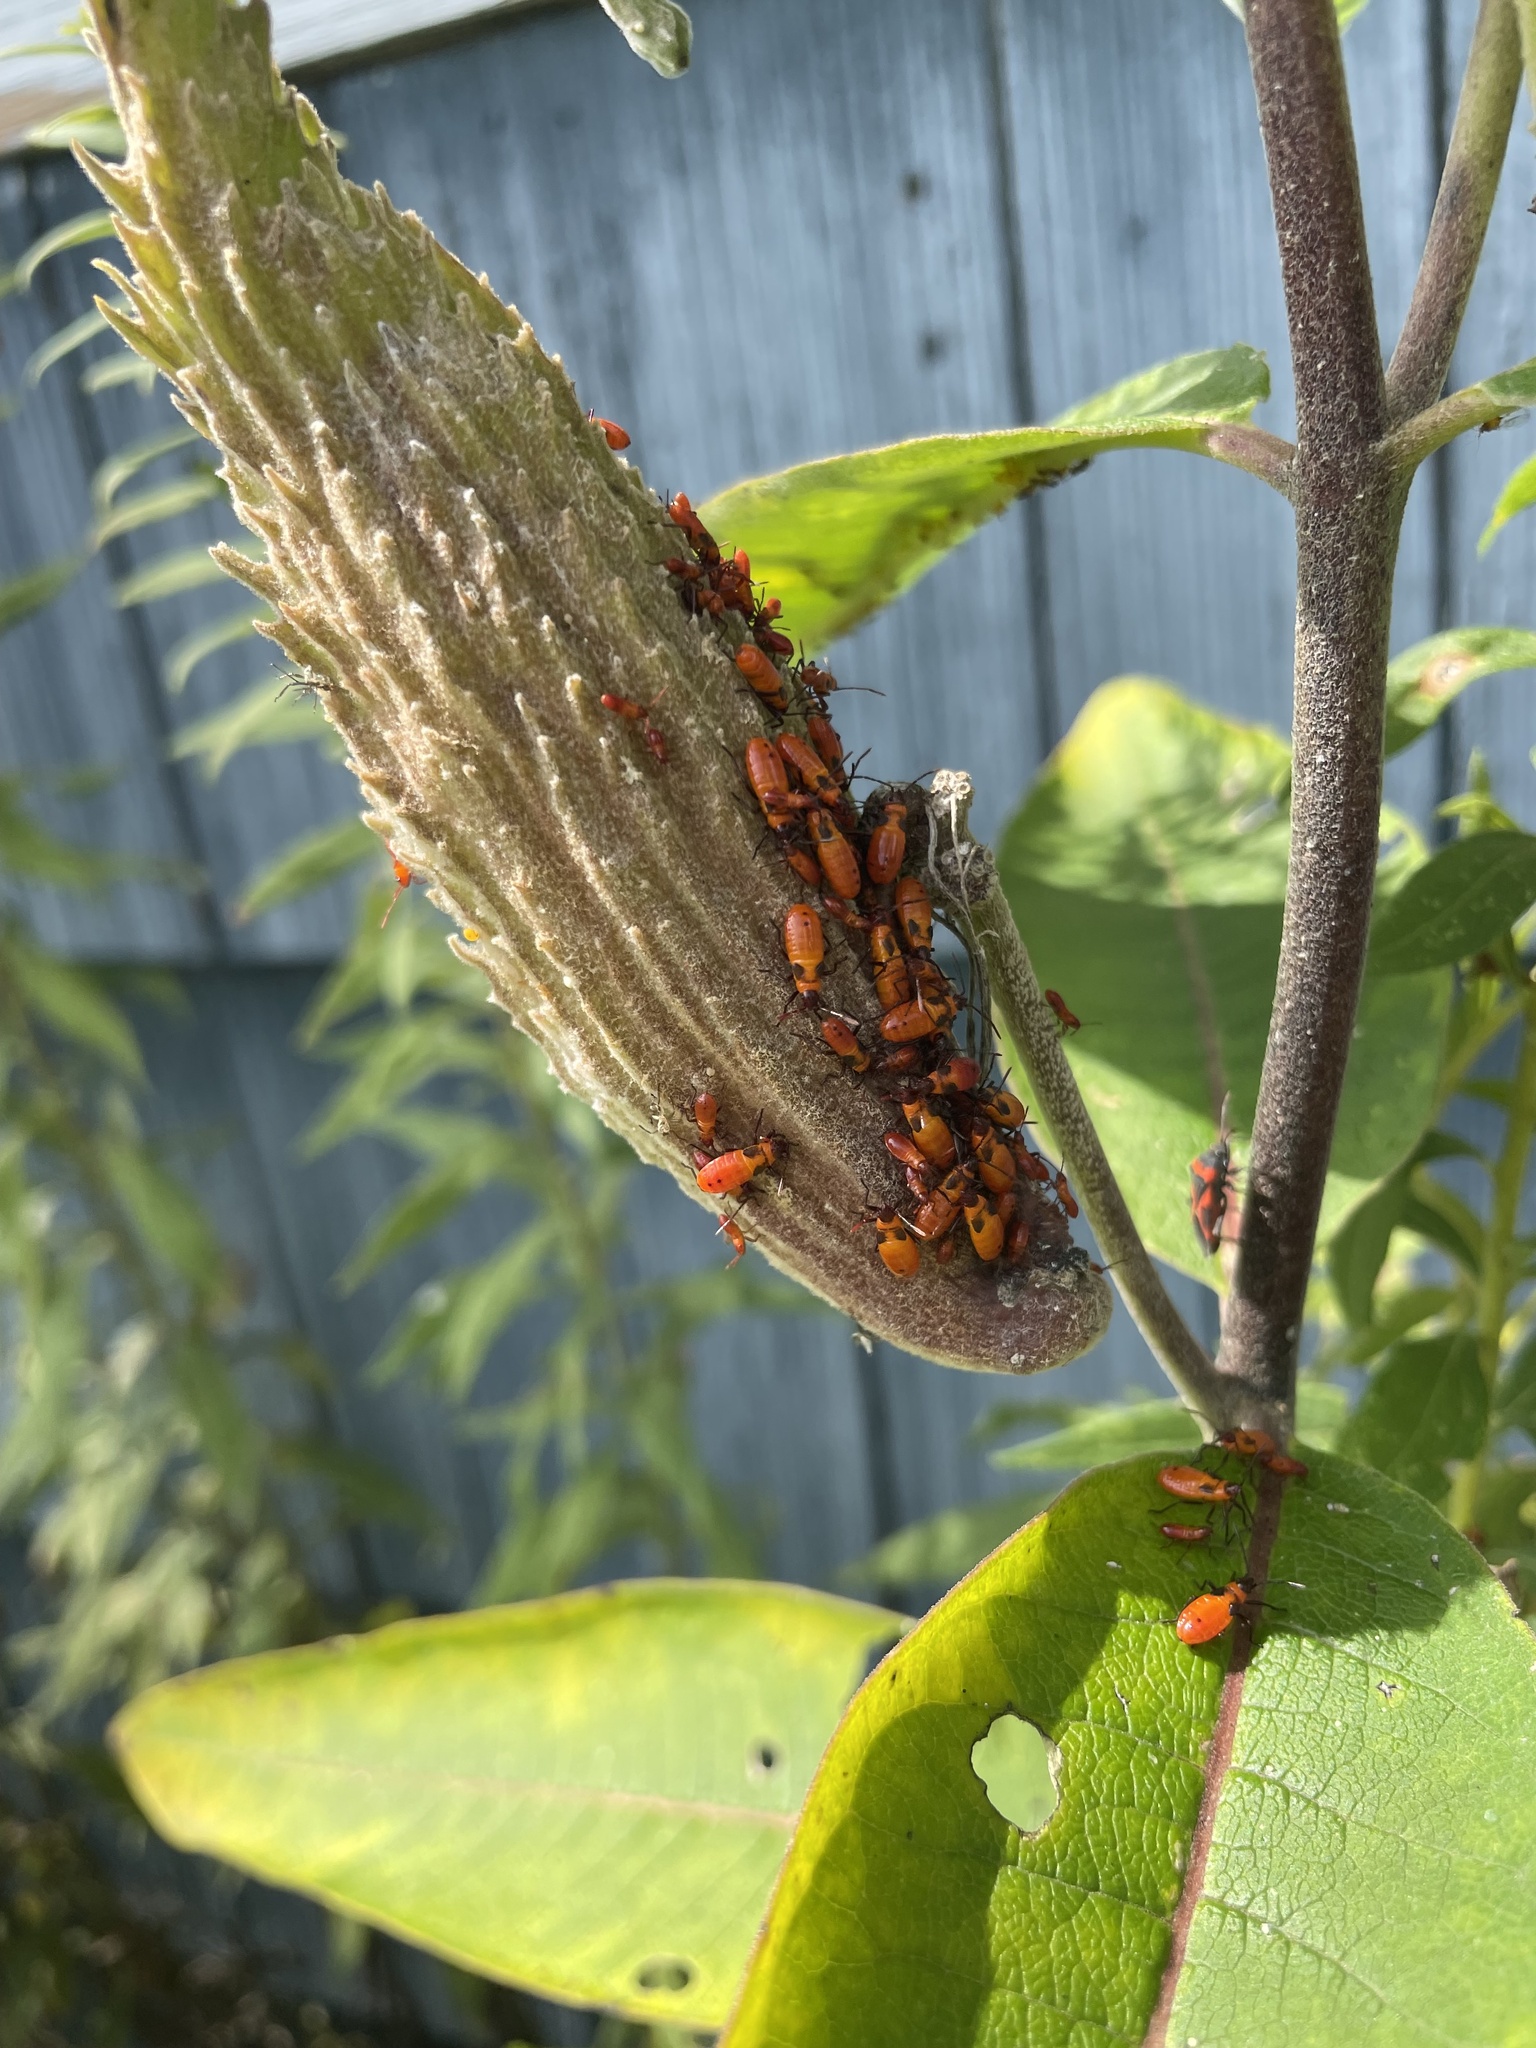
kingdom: Animalia
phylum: Arthropoda
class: Insecta
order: Hemiptera
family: Lygaeidae
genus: Oncopeltus
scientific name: Oncopeltus fasciatus
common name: Large milkweed bug
